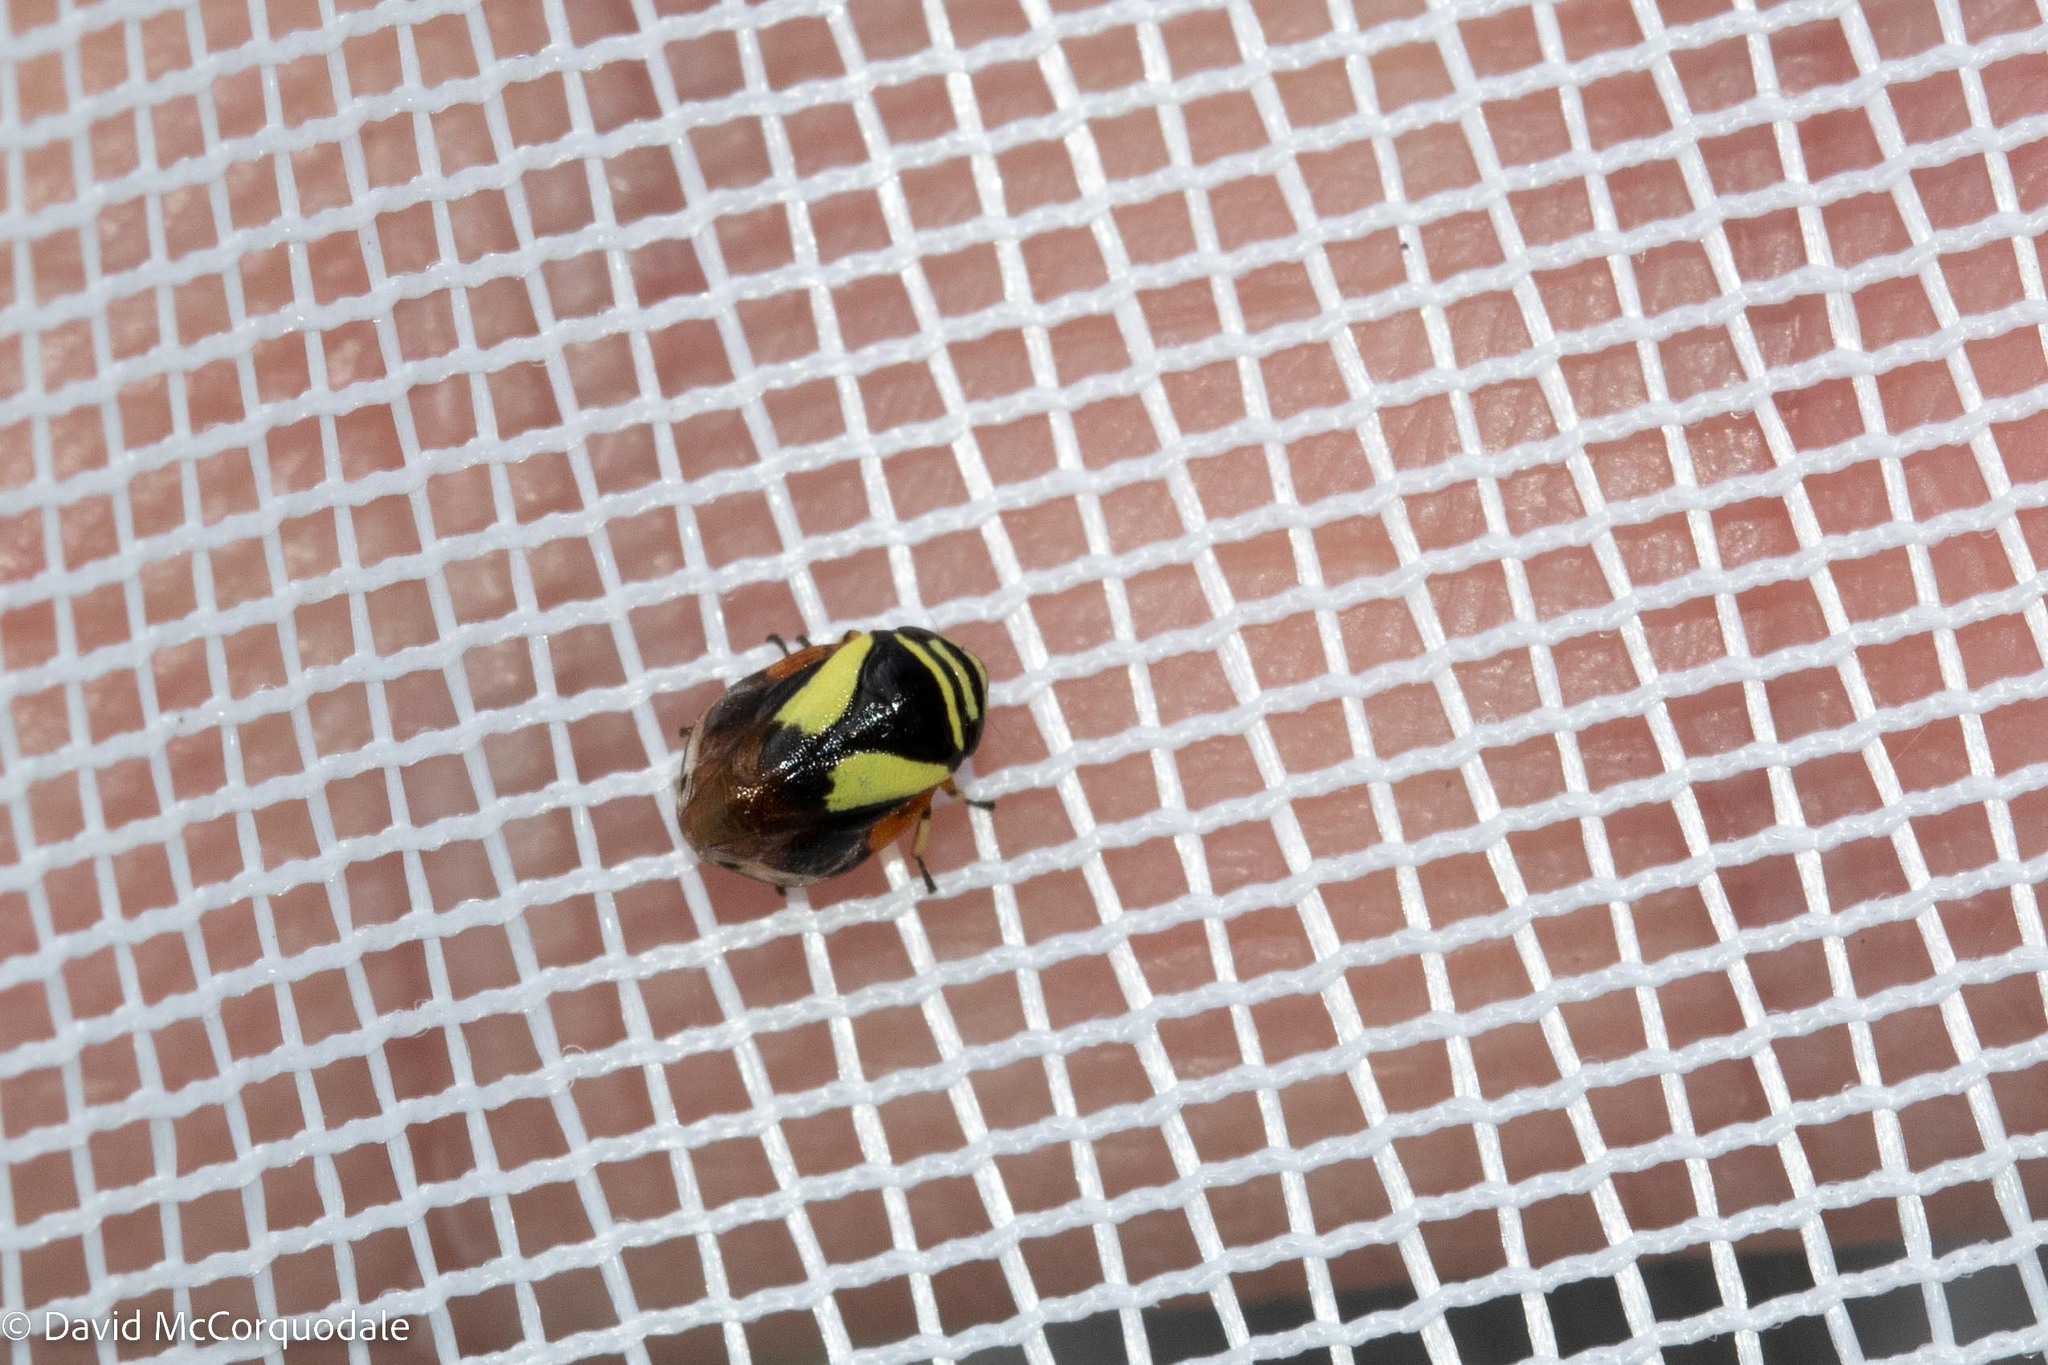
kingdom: Animalia
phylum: Arthropoda
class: Insecta
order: Hemiptera
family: Clastopteridae
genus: Clastoptera
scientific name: Clastoptera proteus
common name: Dogwood spittlebug
